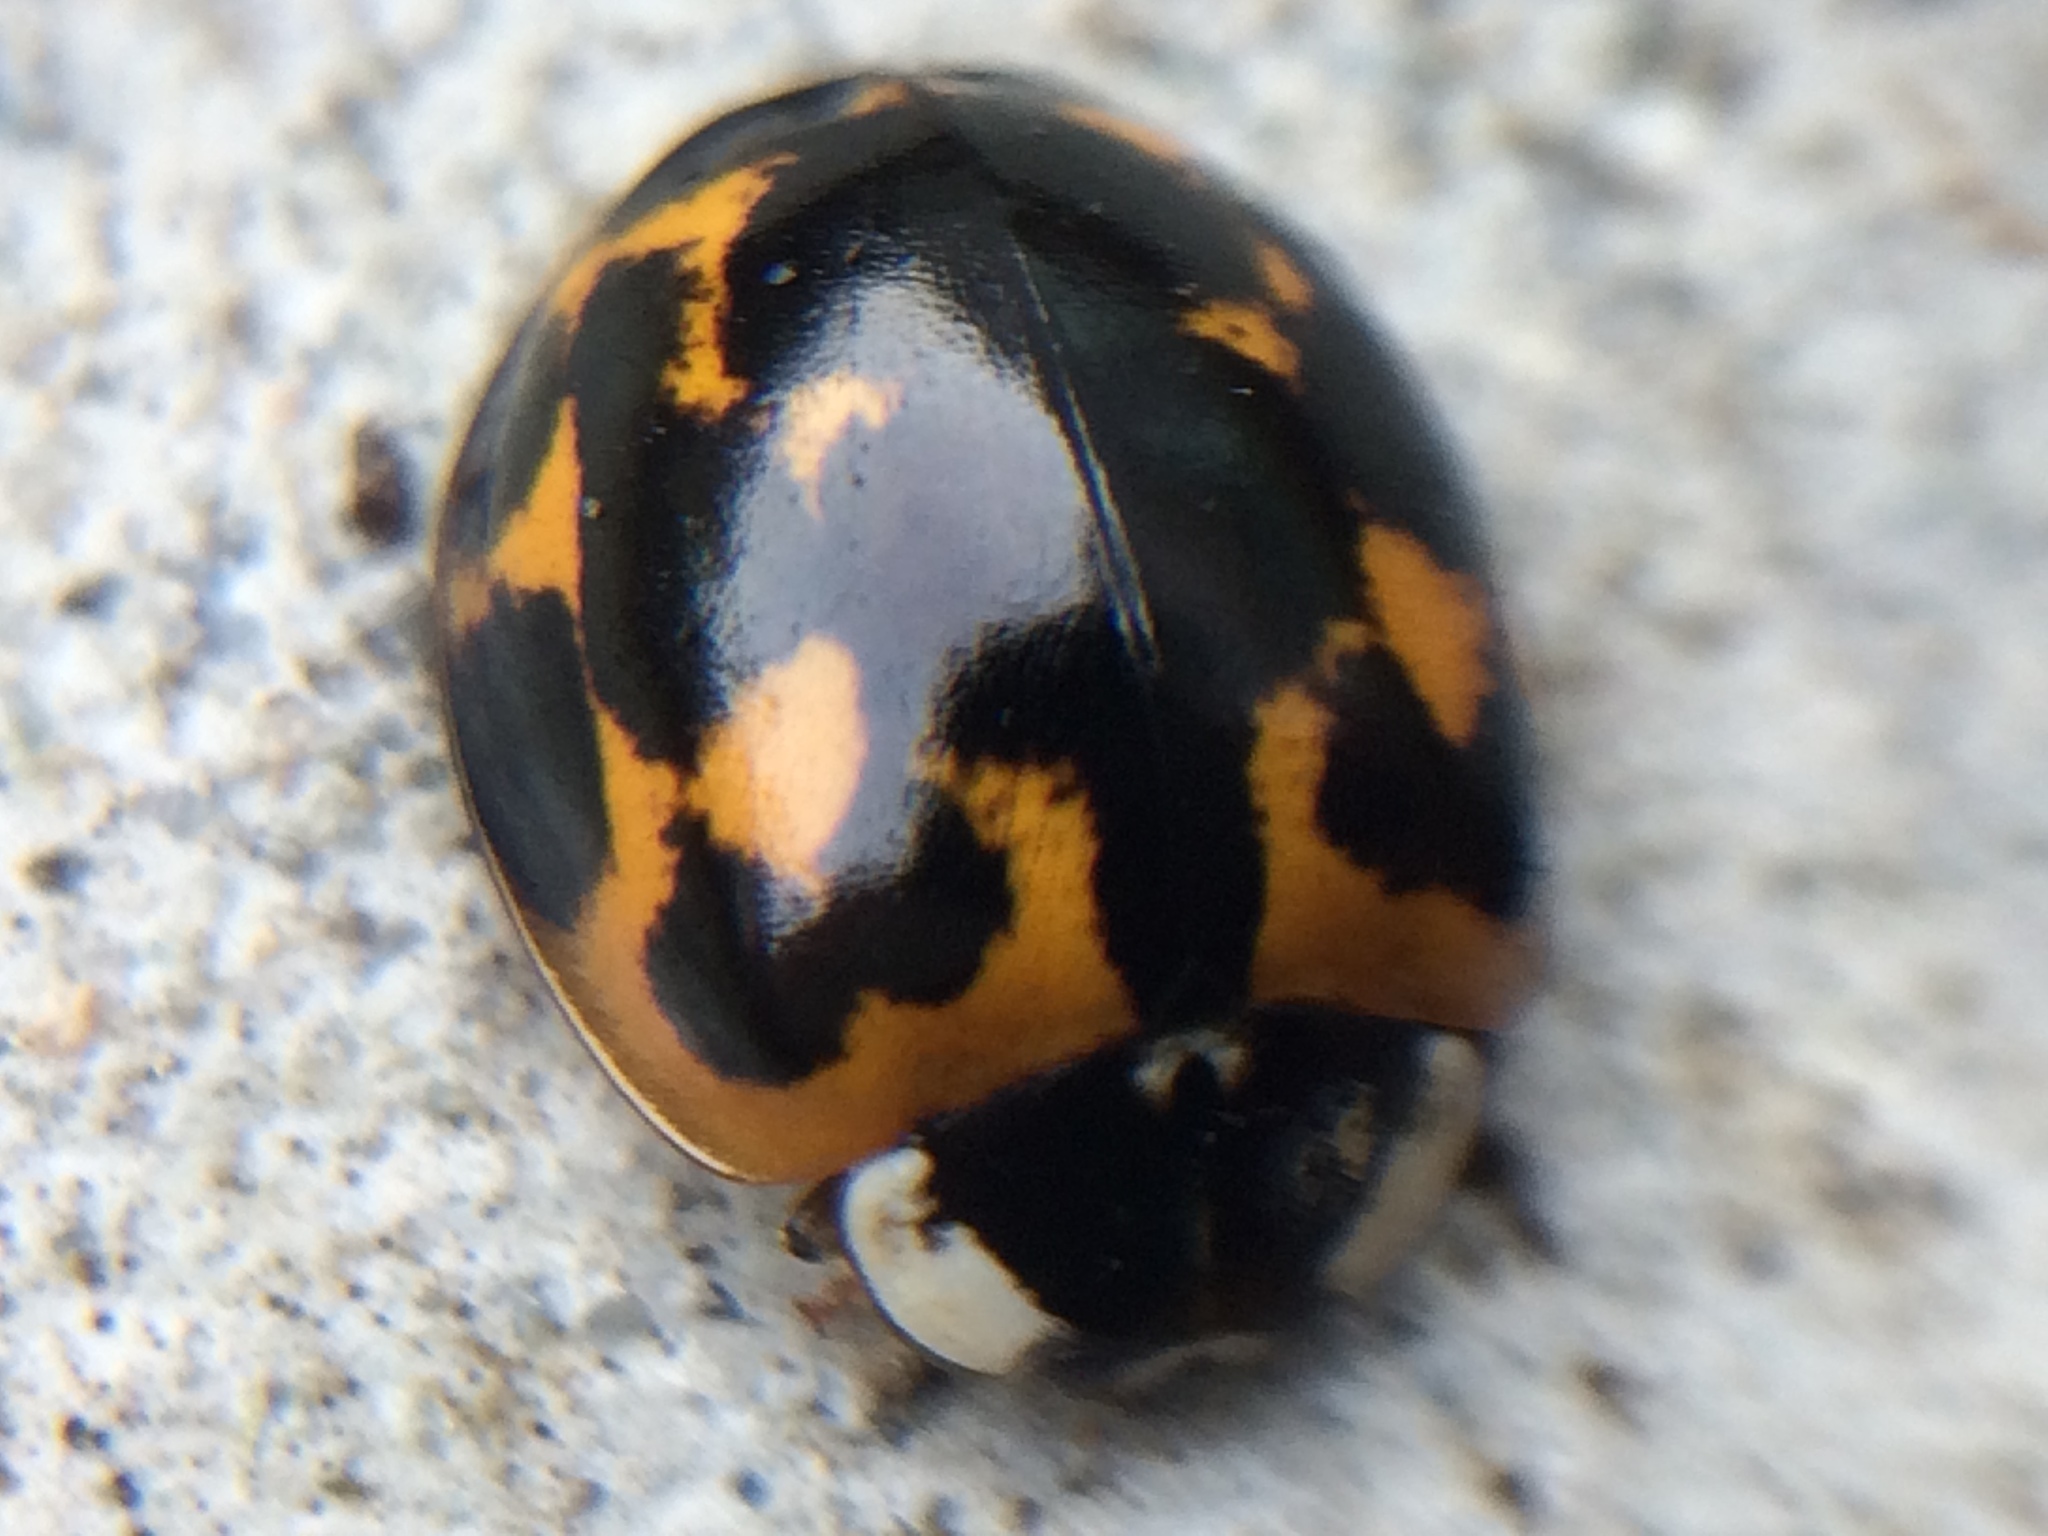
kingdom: Animalia
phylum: Arthropoda
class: Insecta
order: Coleoptera
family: Coccinellidae
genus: Harmonia
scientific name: Harmonia axyridis
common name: Harlequin ladybird
